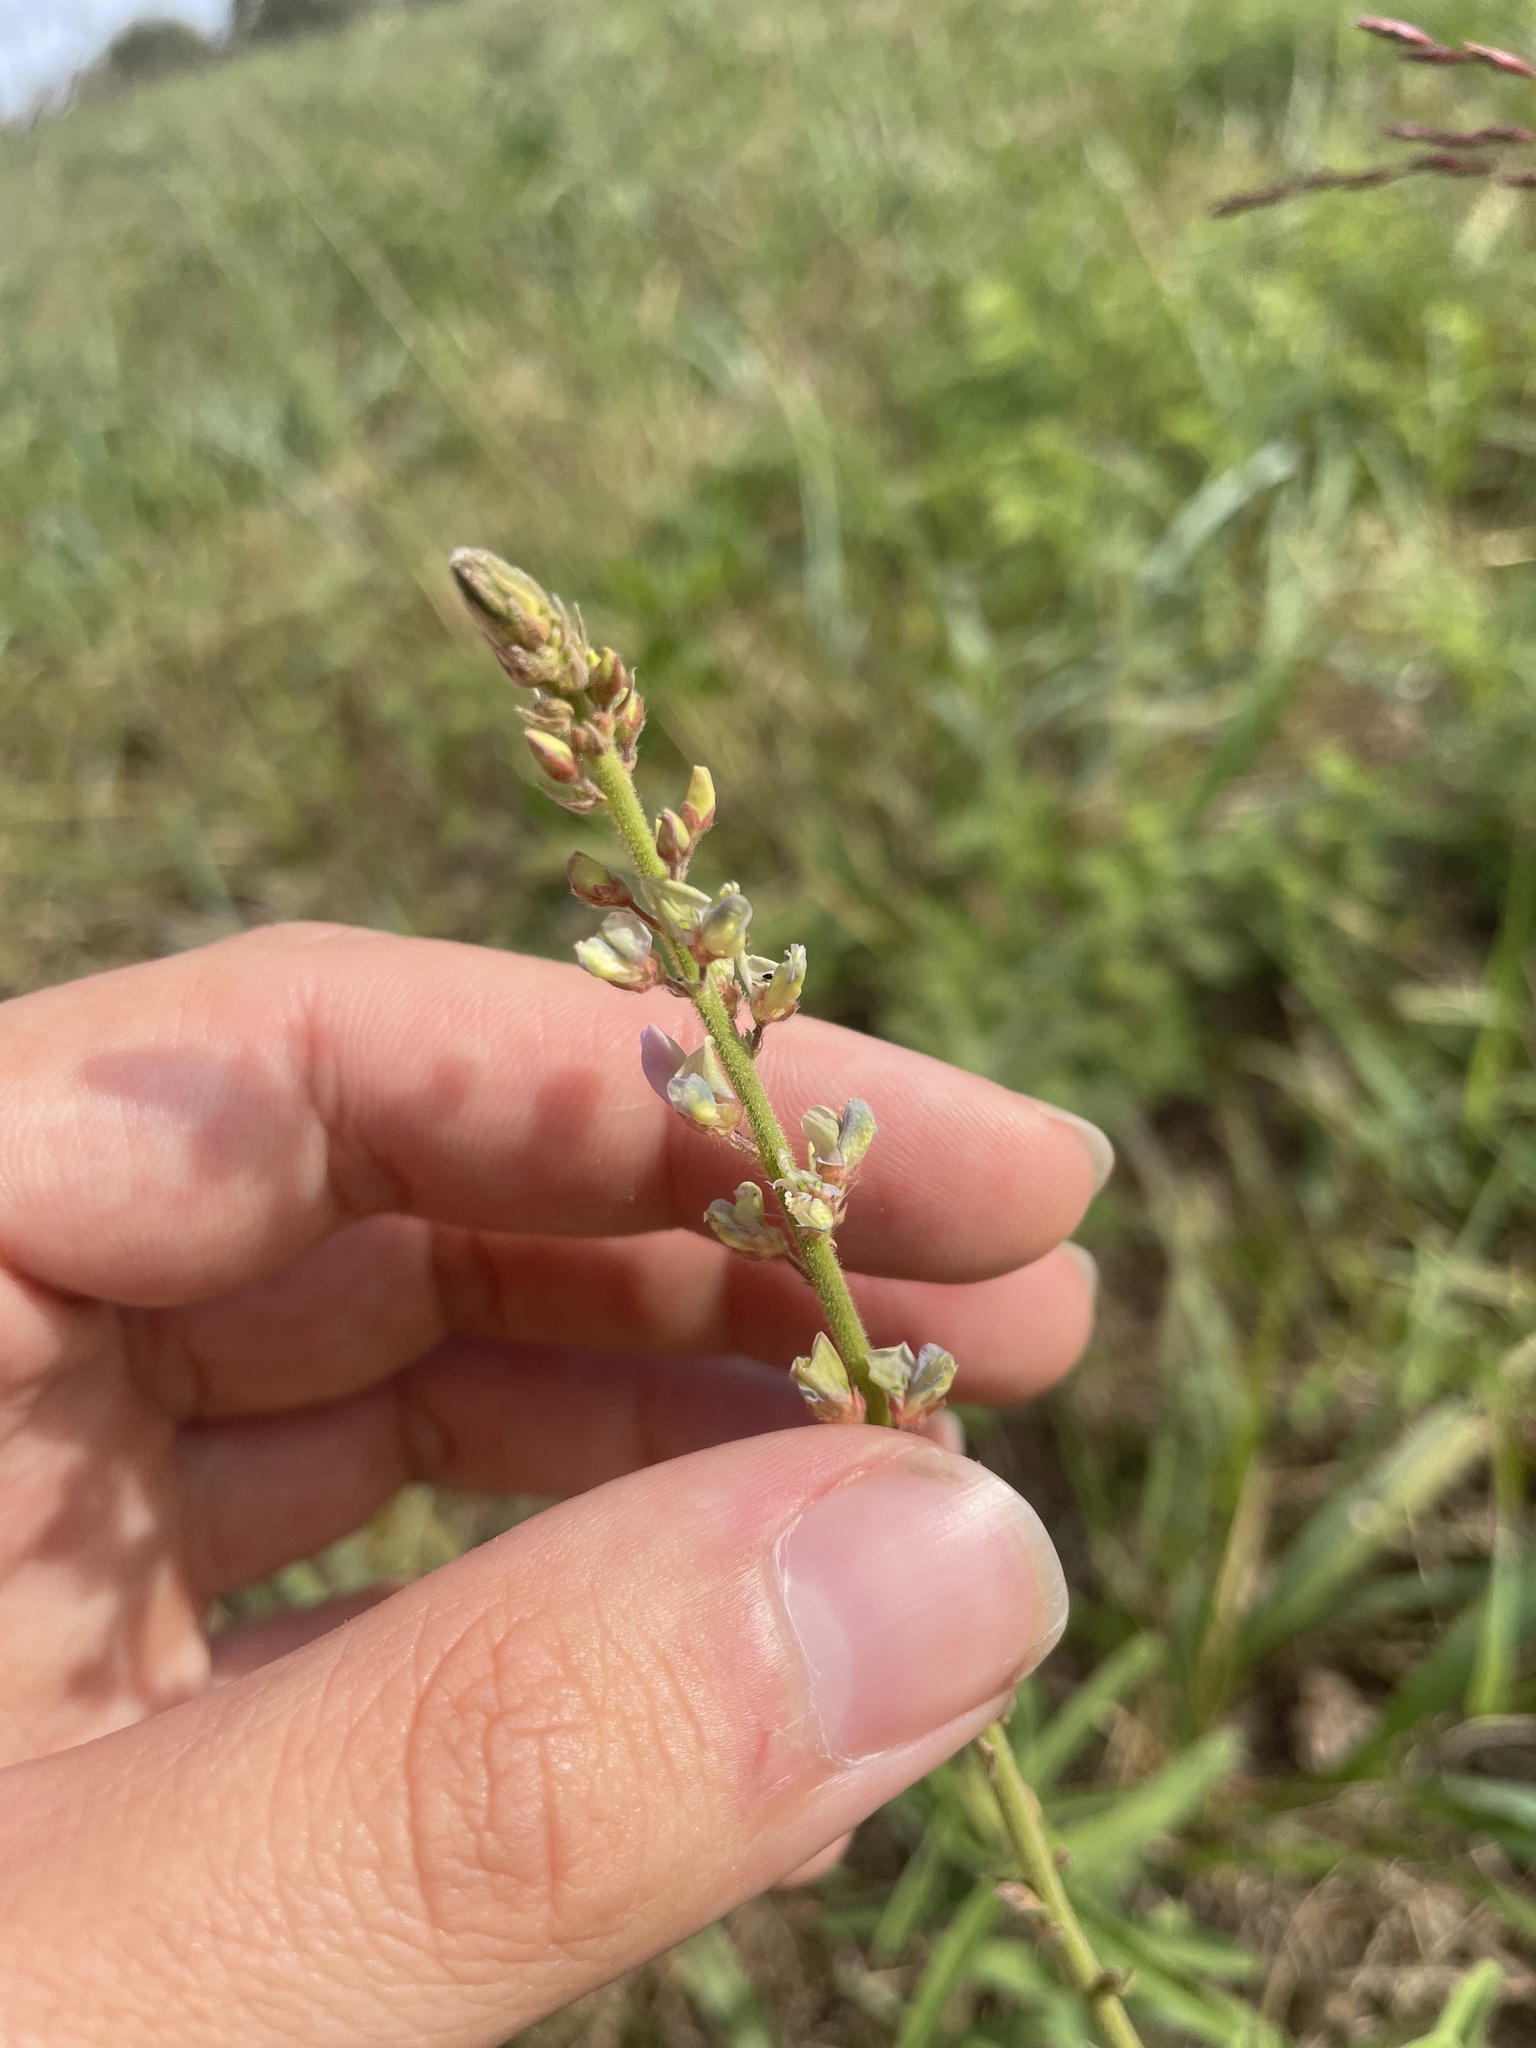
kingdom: Plantae
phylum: Tracheophyta
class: Magnoliopsida
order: Fabales
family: Fabaceae
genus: Desmodium
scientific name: Desmodium sessilifolium
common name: Sessile tick-clover
